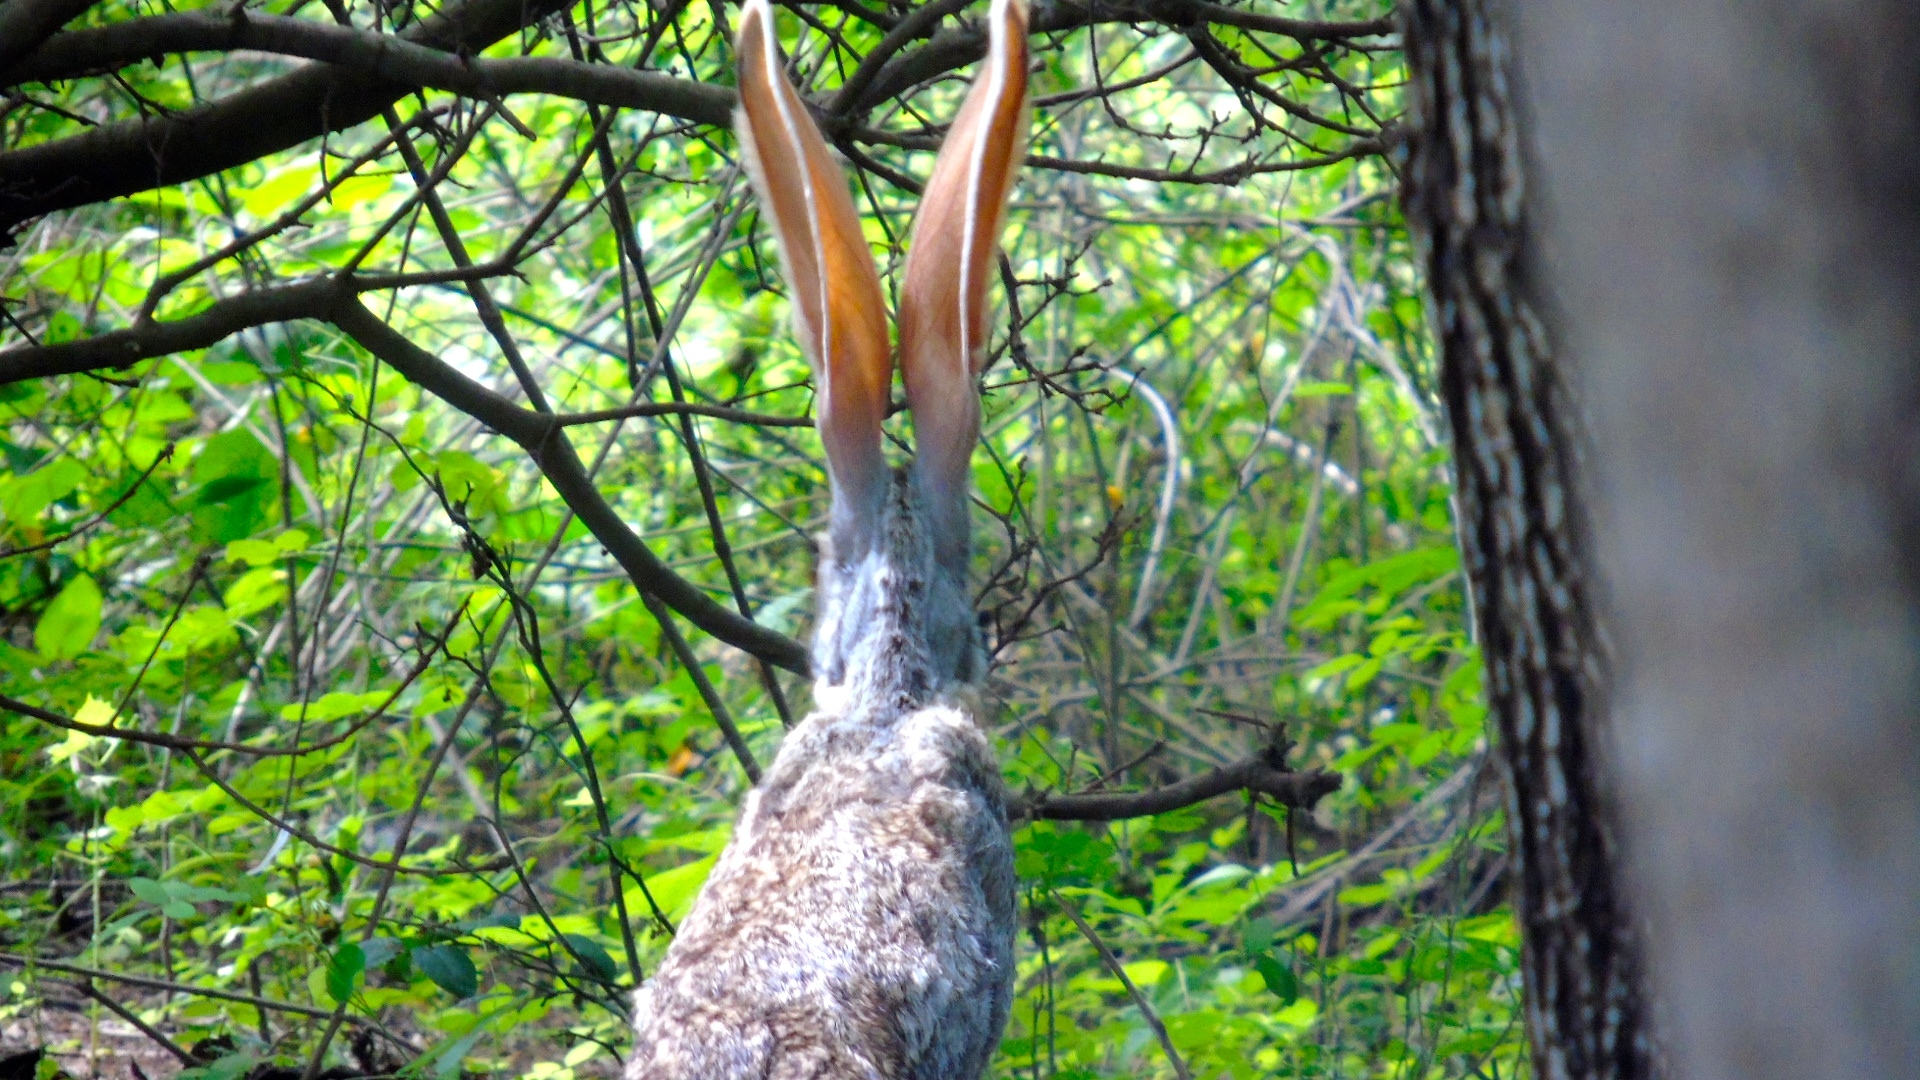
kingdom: Animalia
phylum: Chordata
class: Mammalia
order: Lagomorpha
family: Leporidae
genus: Lepus
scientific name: Lepus alleni
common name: Antelope jackrabbit
